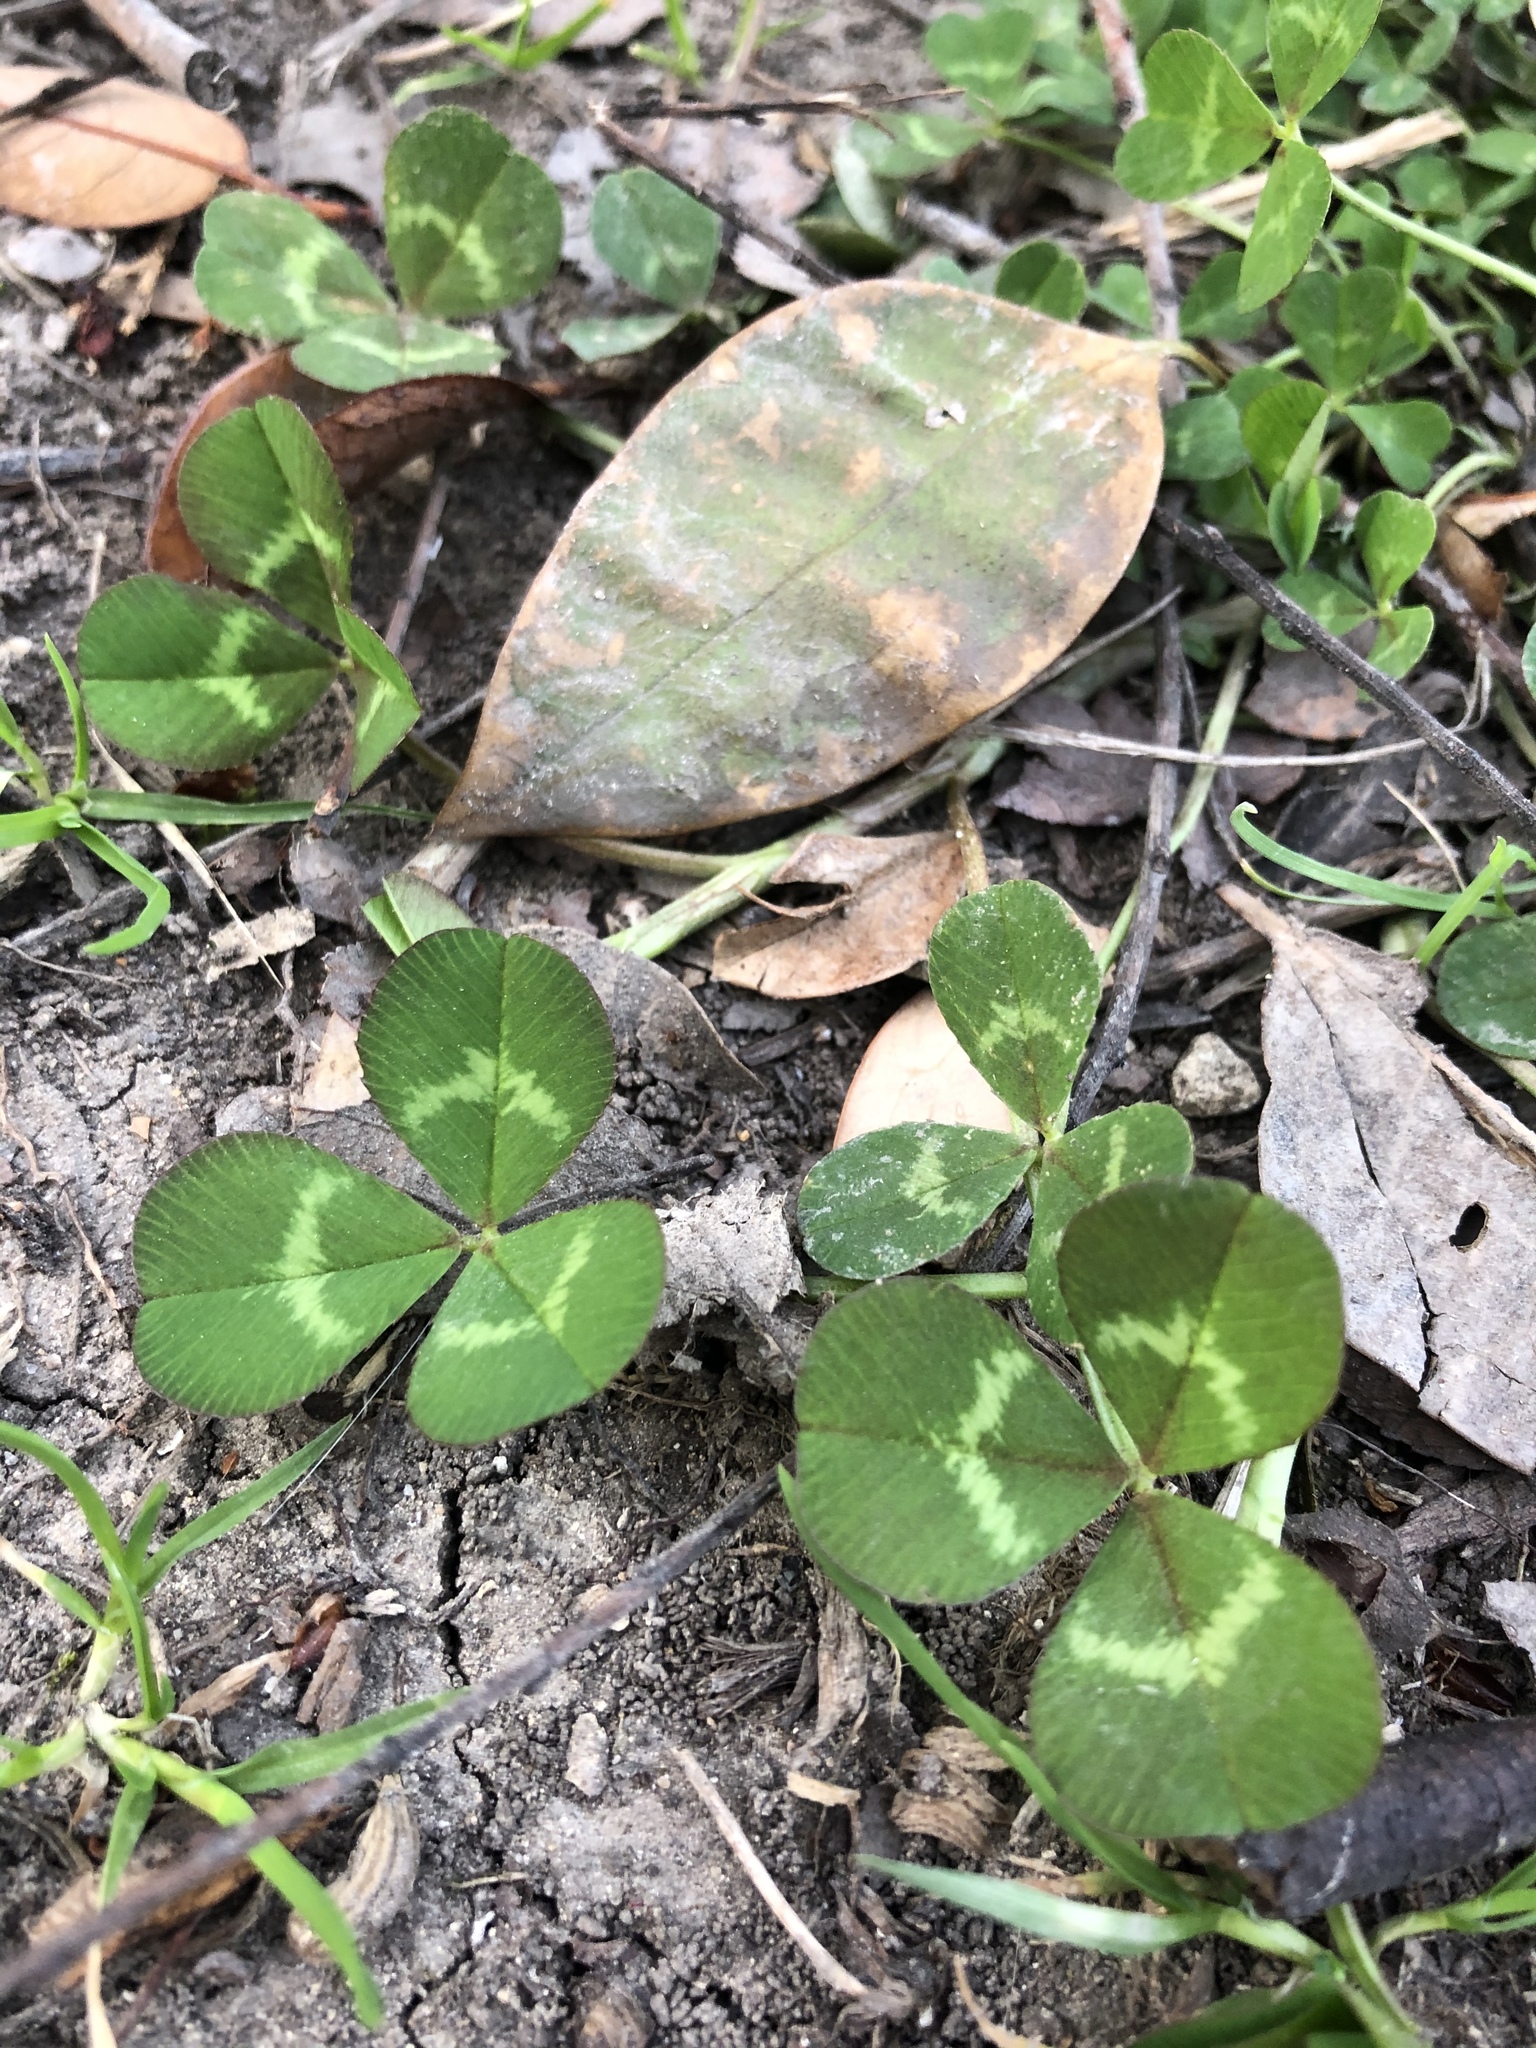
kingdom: Plantae
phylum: Tracheophyta
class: Magnoliopsida
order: Fabales
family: Fabaceae
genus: Trifolium
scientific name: Trifolium repens
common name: White clover
